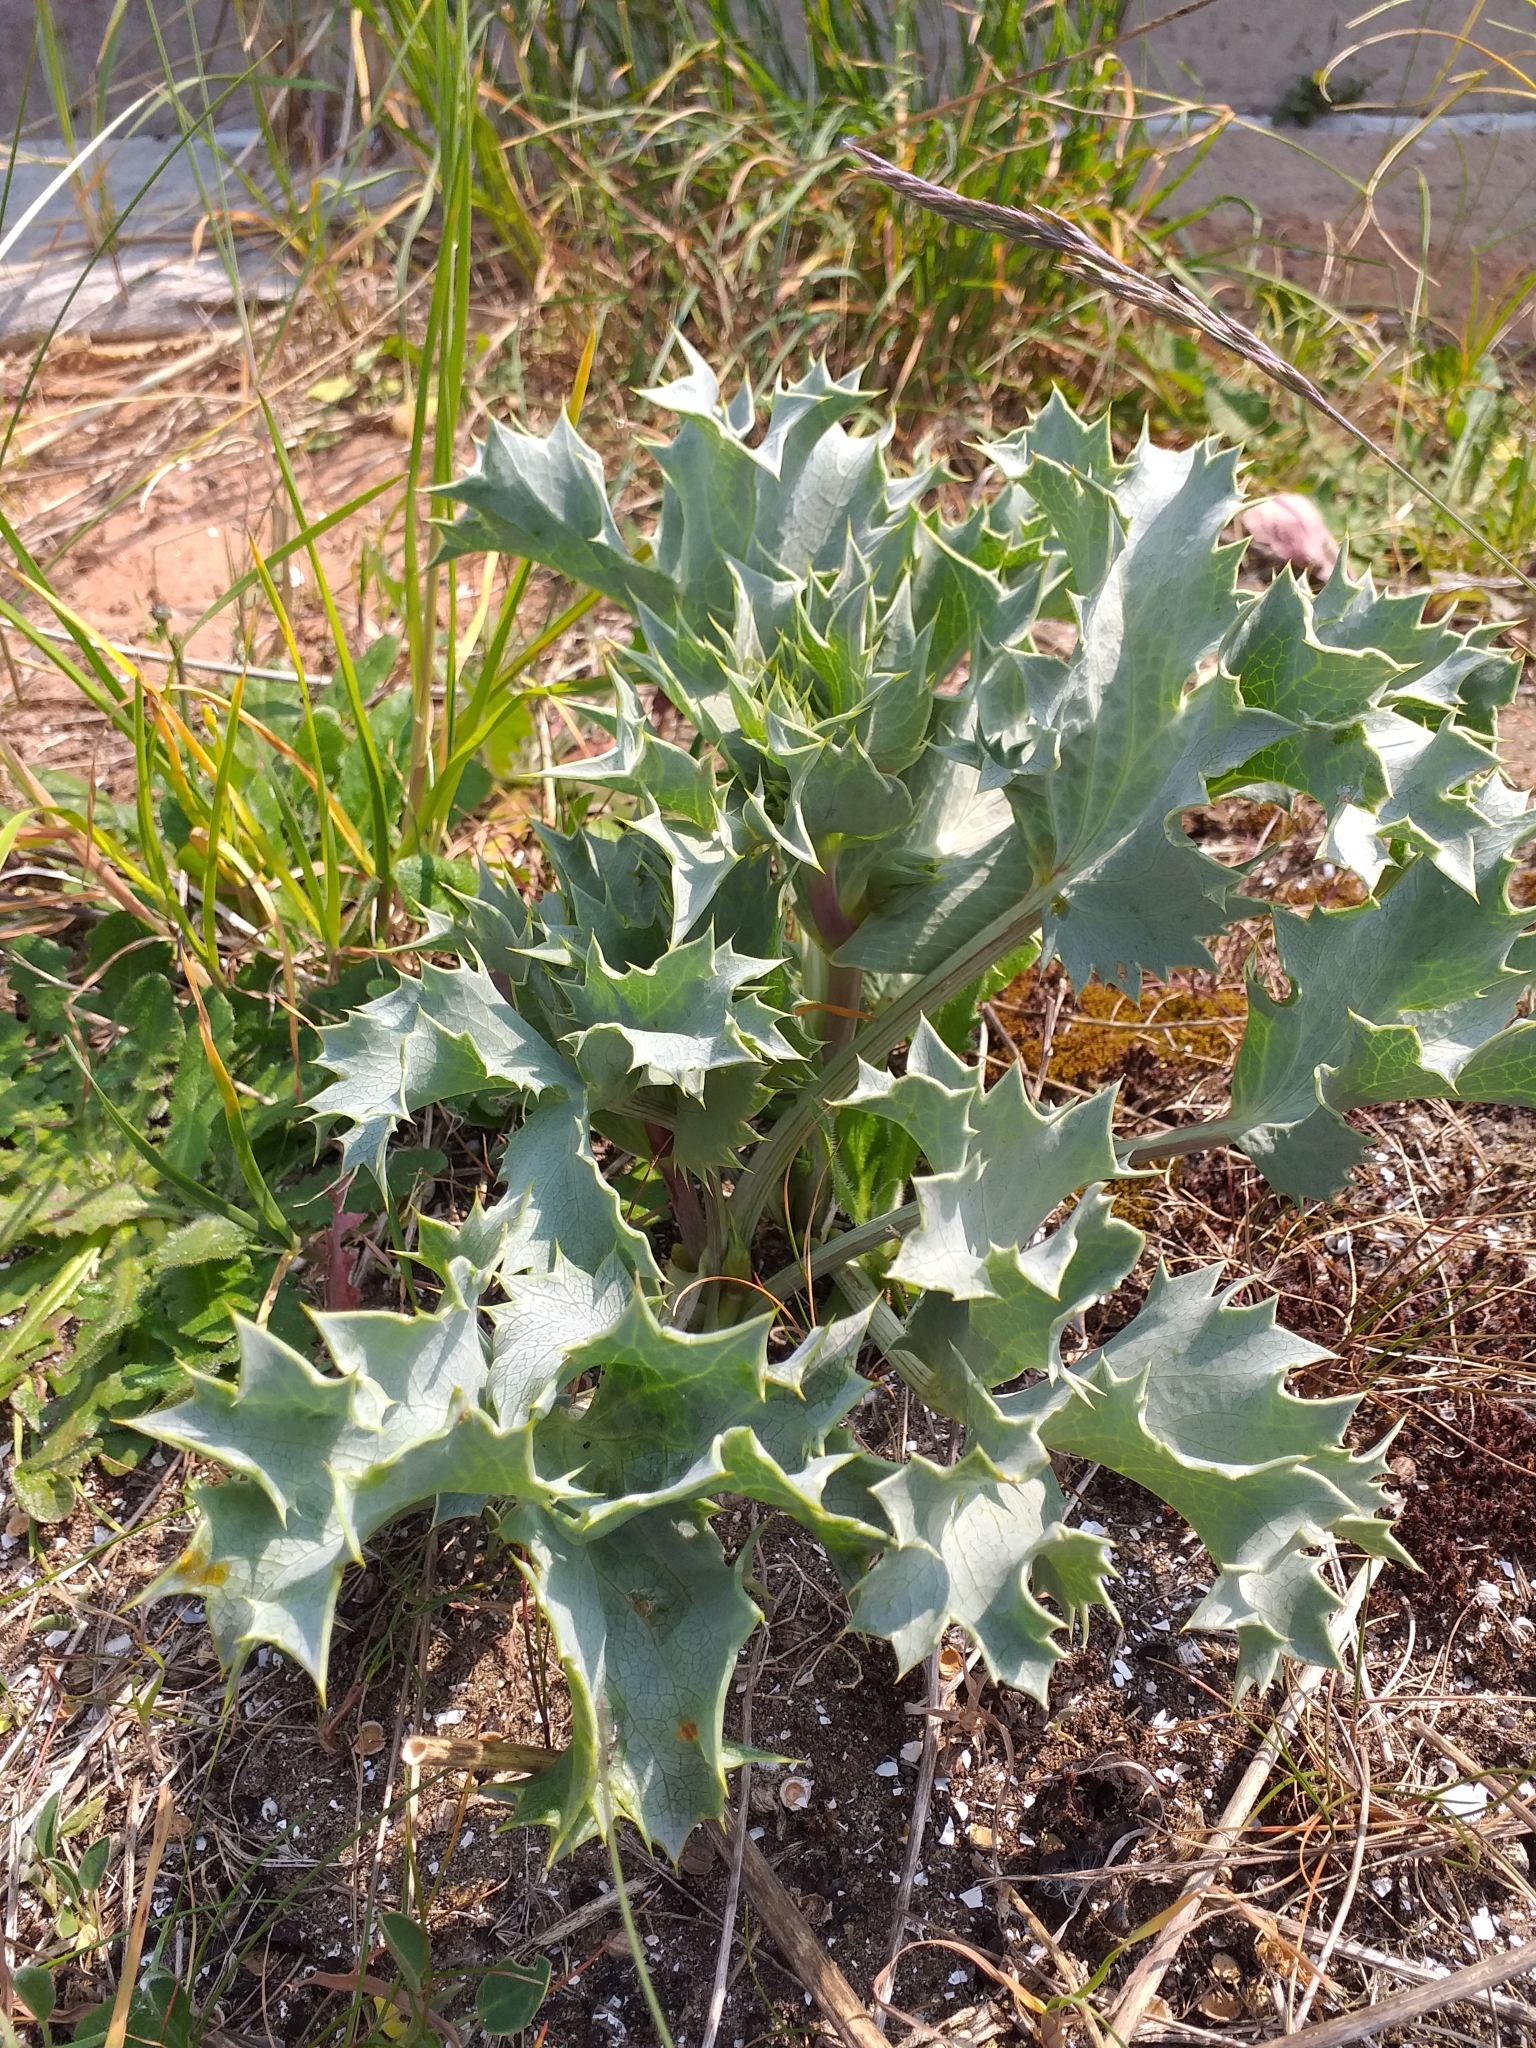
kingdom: Plantae
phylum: Tracheophyta
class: Magnoliopsida
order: Apiales
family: Apiaceae
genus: Eryngium
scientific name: Eryngium maritimum
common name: Sea-holly
